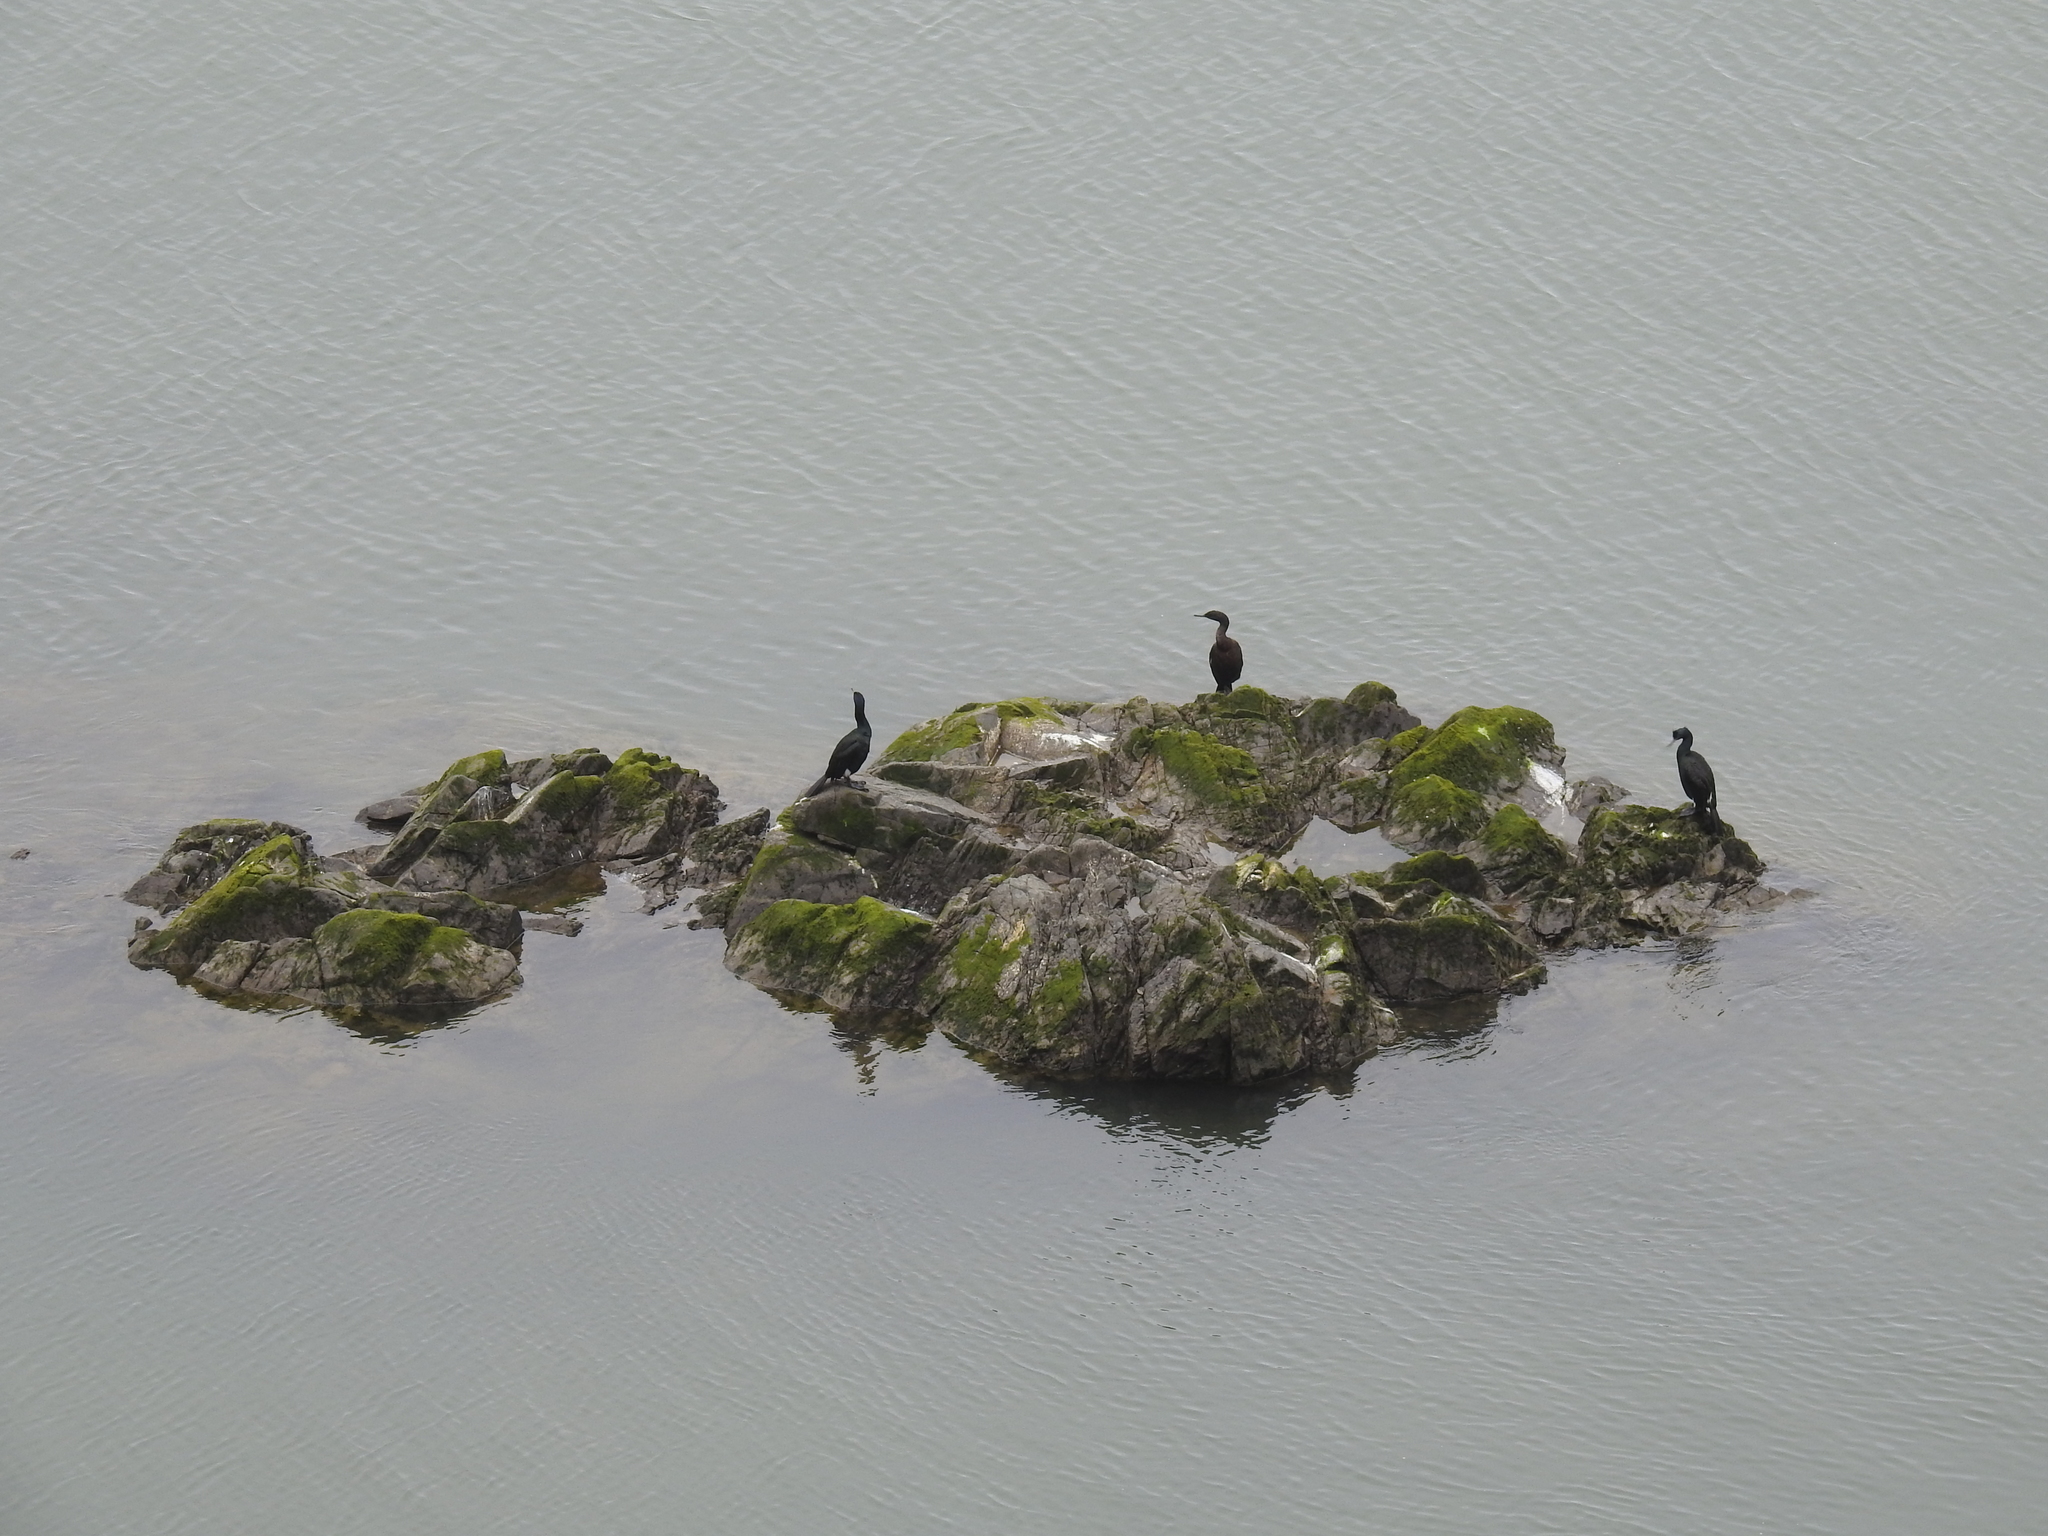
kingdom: Animalia
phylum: Chordata
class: Aves
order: Suliformes
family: Phalacrocoracidae
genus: Phalacrocorax
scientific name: Phalacrocorax pelagicus
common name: Pelagic cormorant
